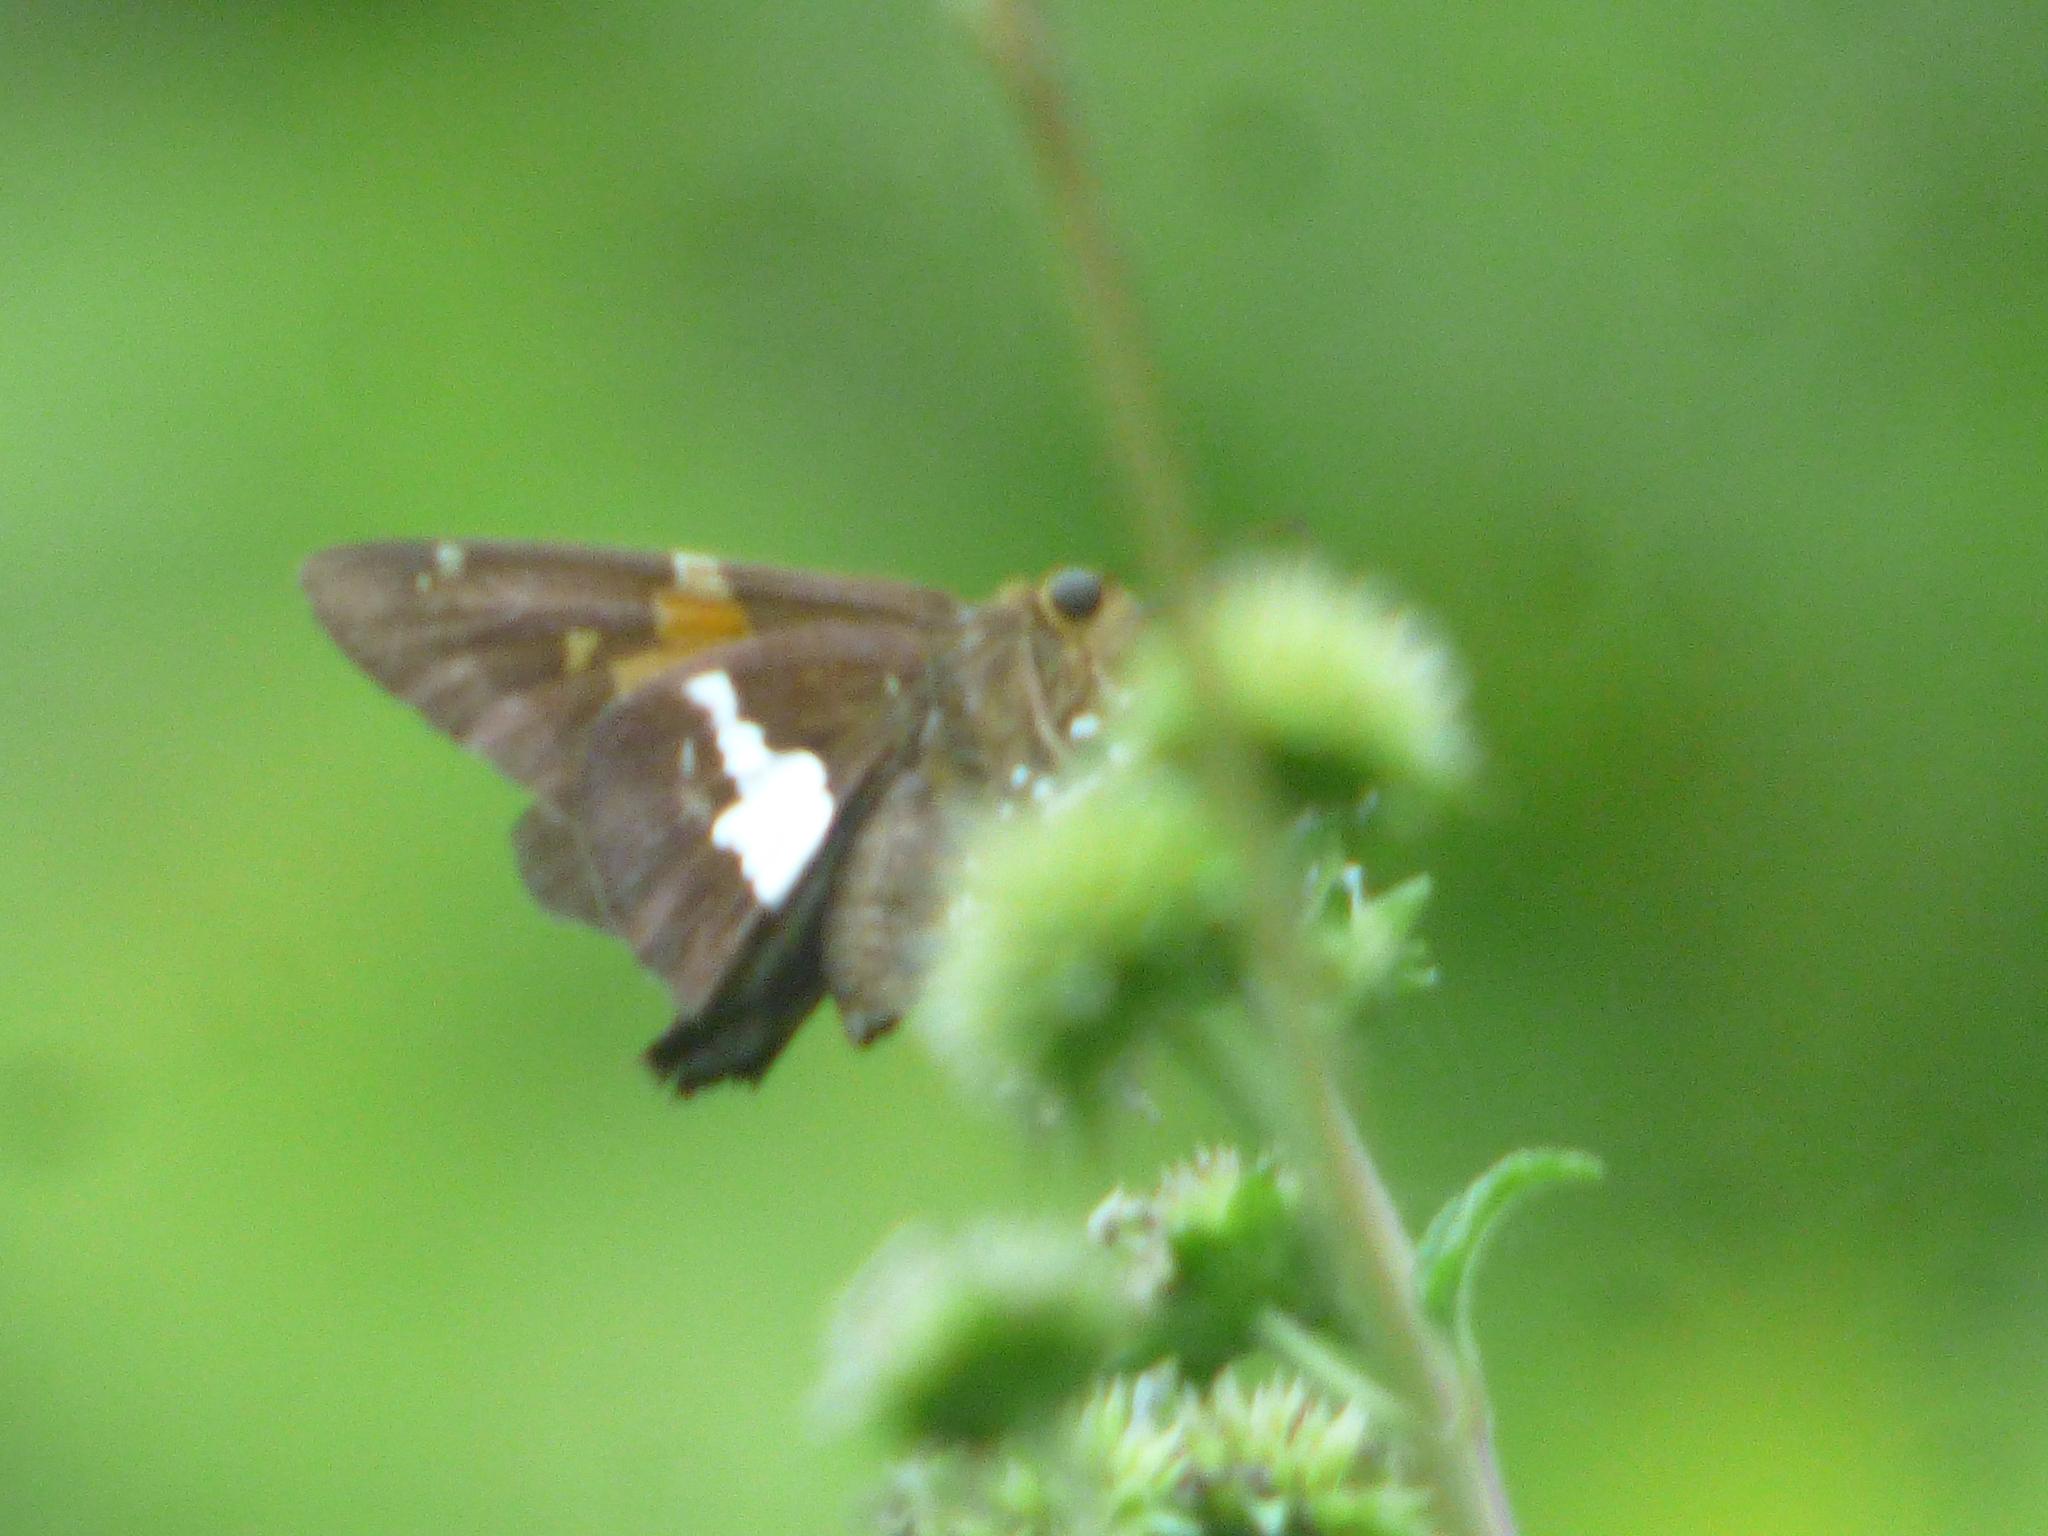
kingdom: Animalia
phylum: Arthropoda
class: Insecta
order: Lepidoptera
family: Hesperiidae
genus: Epargyreus
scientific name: Epargyreus clarus
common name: Silver-spotted skipper
